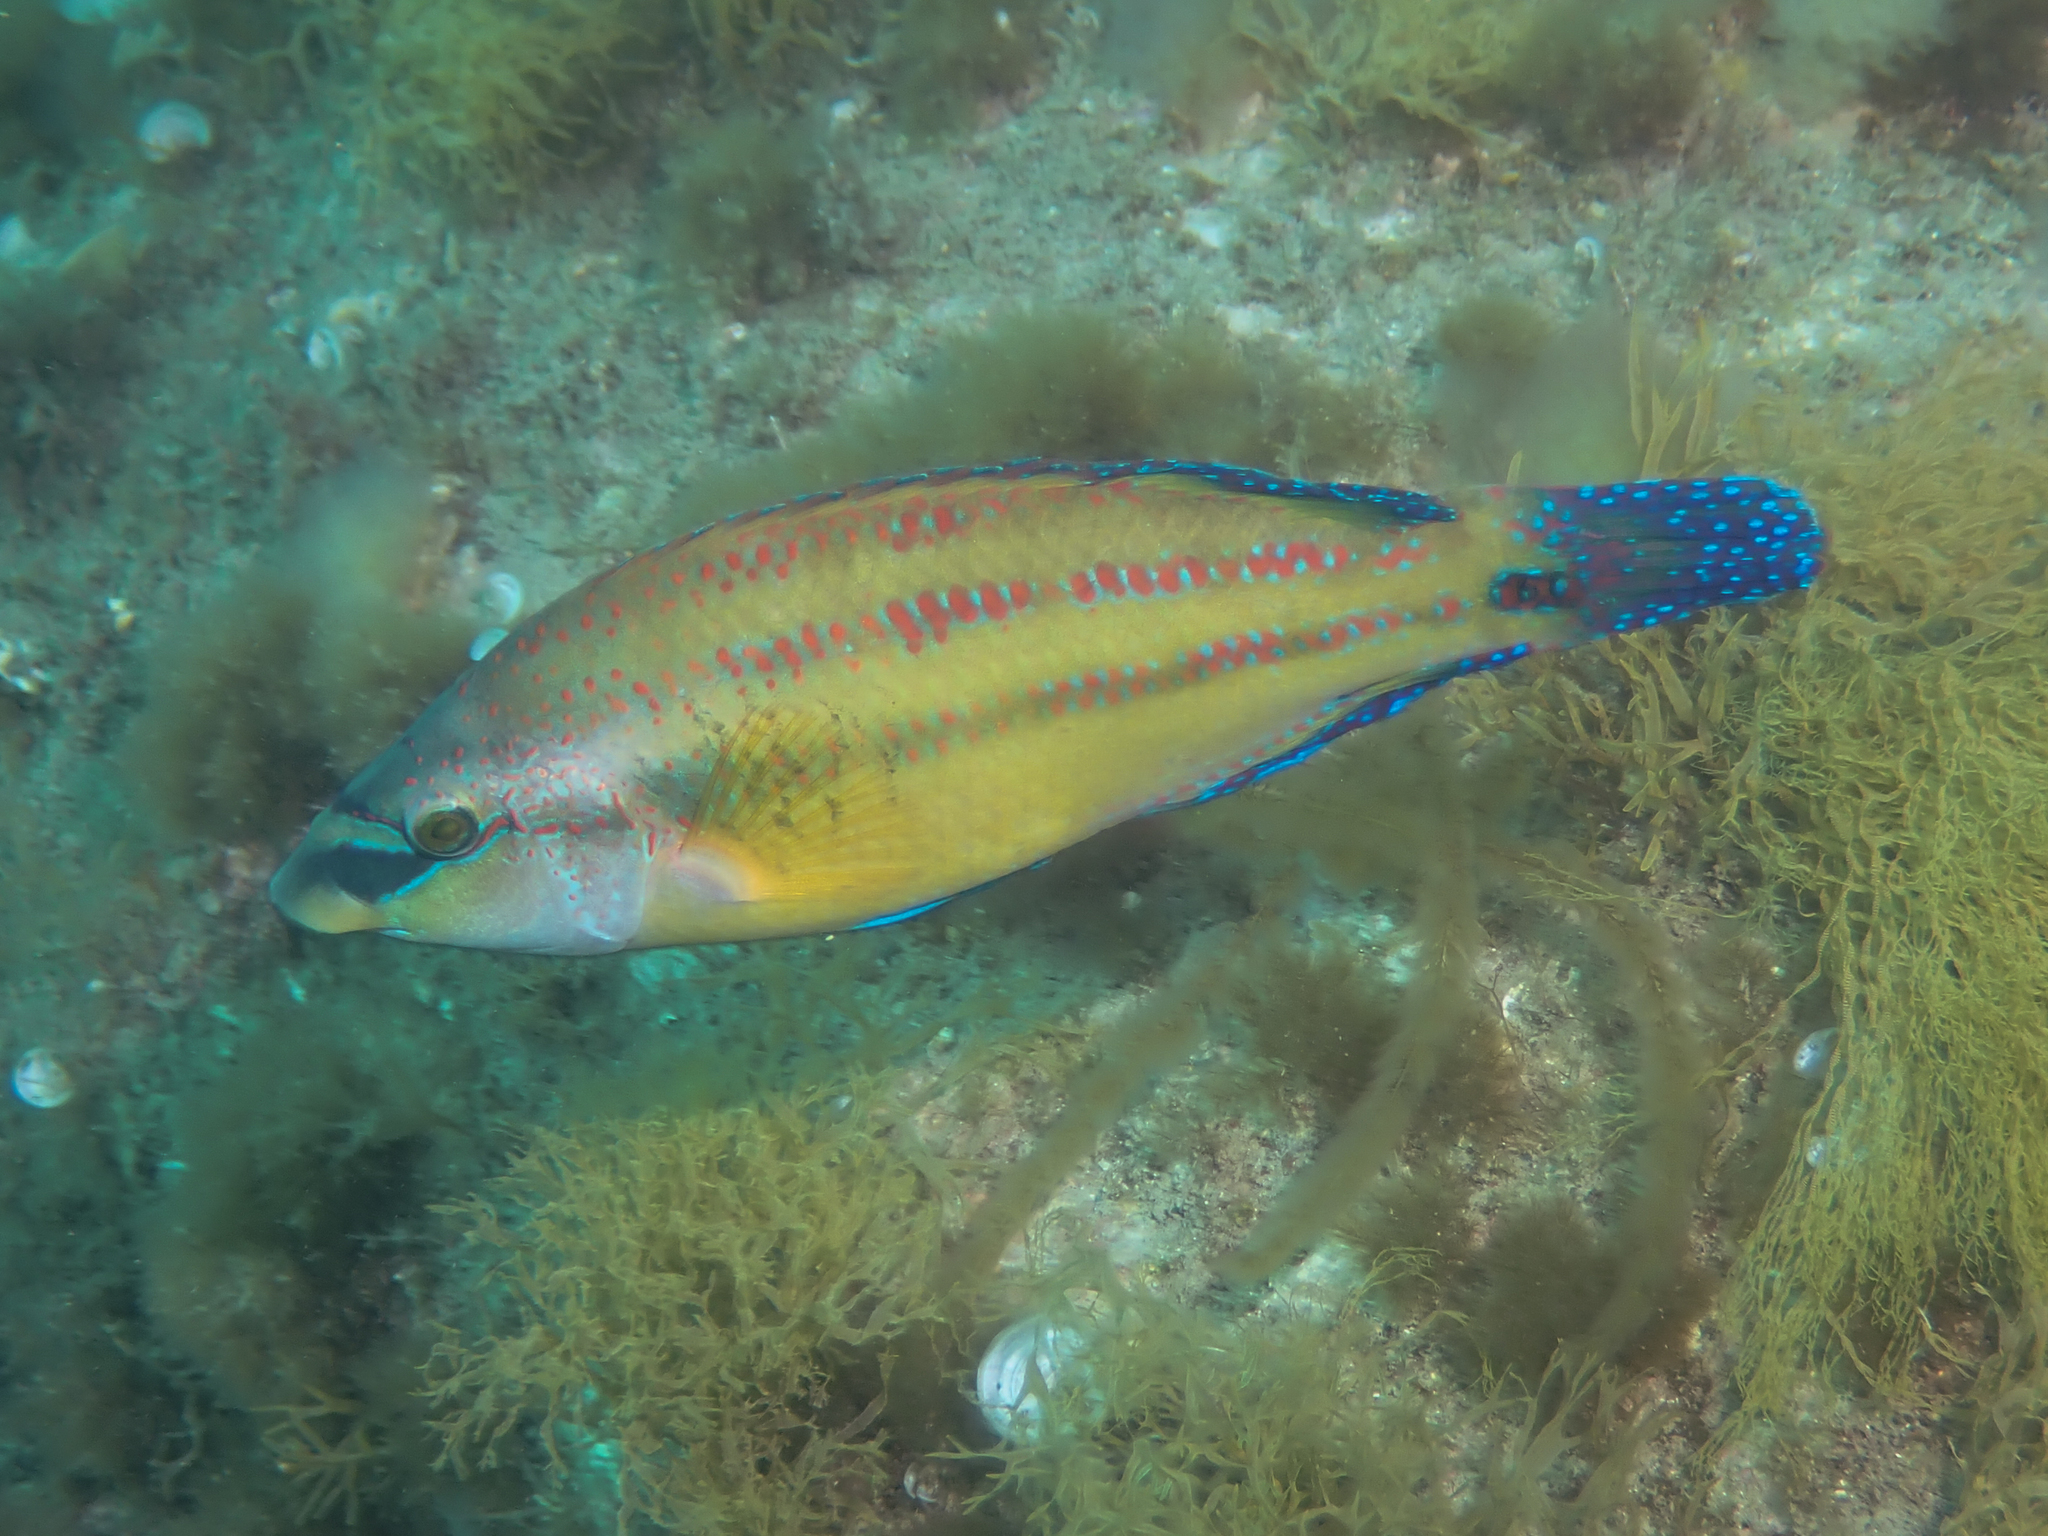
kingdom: Animalia
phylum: Chordata
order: Perciformes
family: Labridae
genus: Symphodus
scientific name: Symphodus tinca
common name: Peacock wrasse
